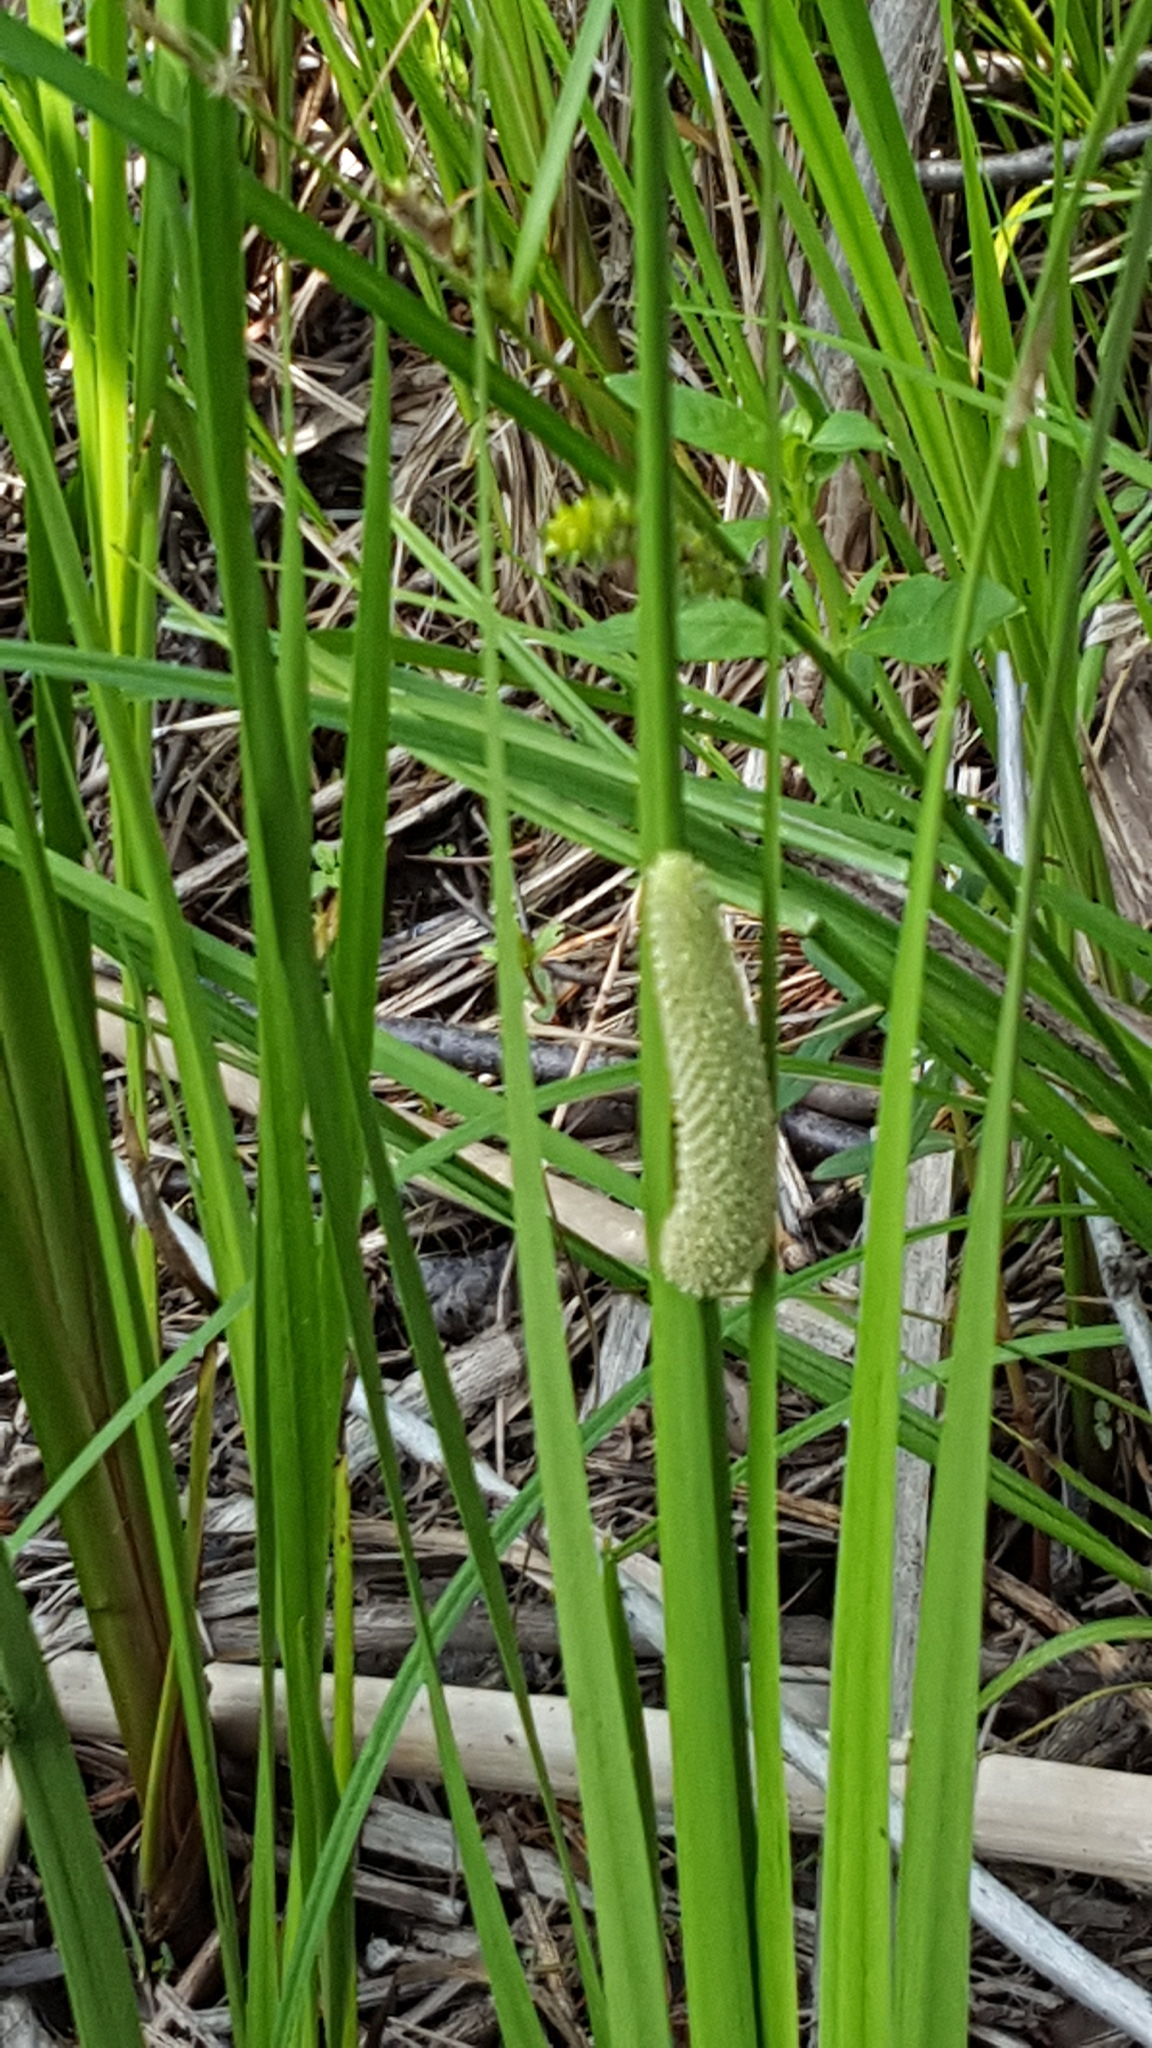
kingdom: Plantae
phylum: Tracheophyta
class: Liliopsida
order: Acorales
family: Acoraceae
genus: Acorus
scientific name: Acorus calamus
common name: Sweet-flag
